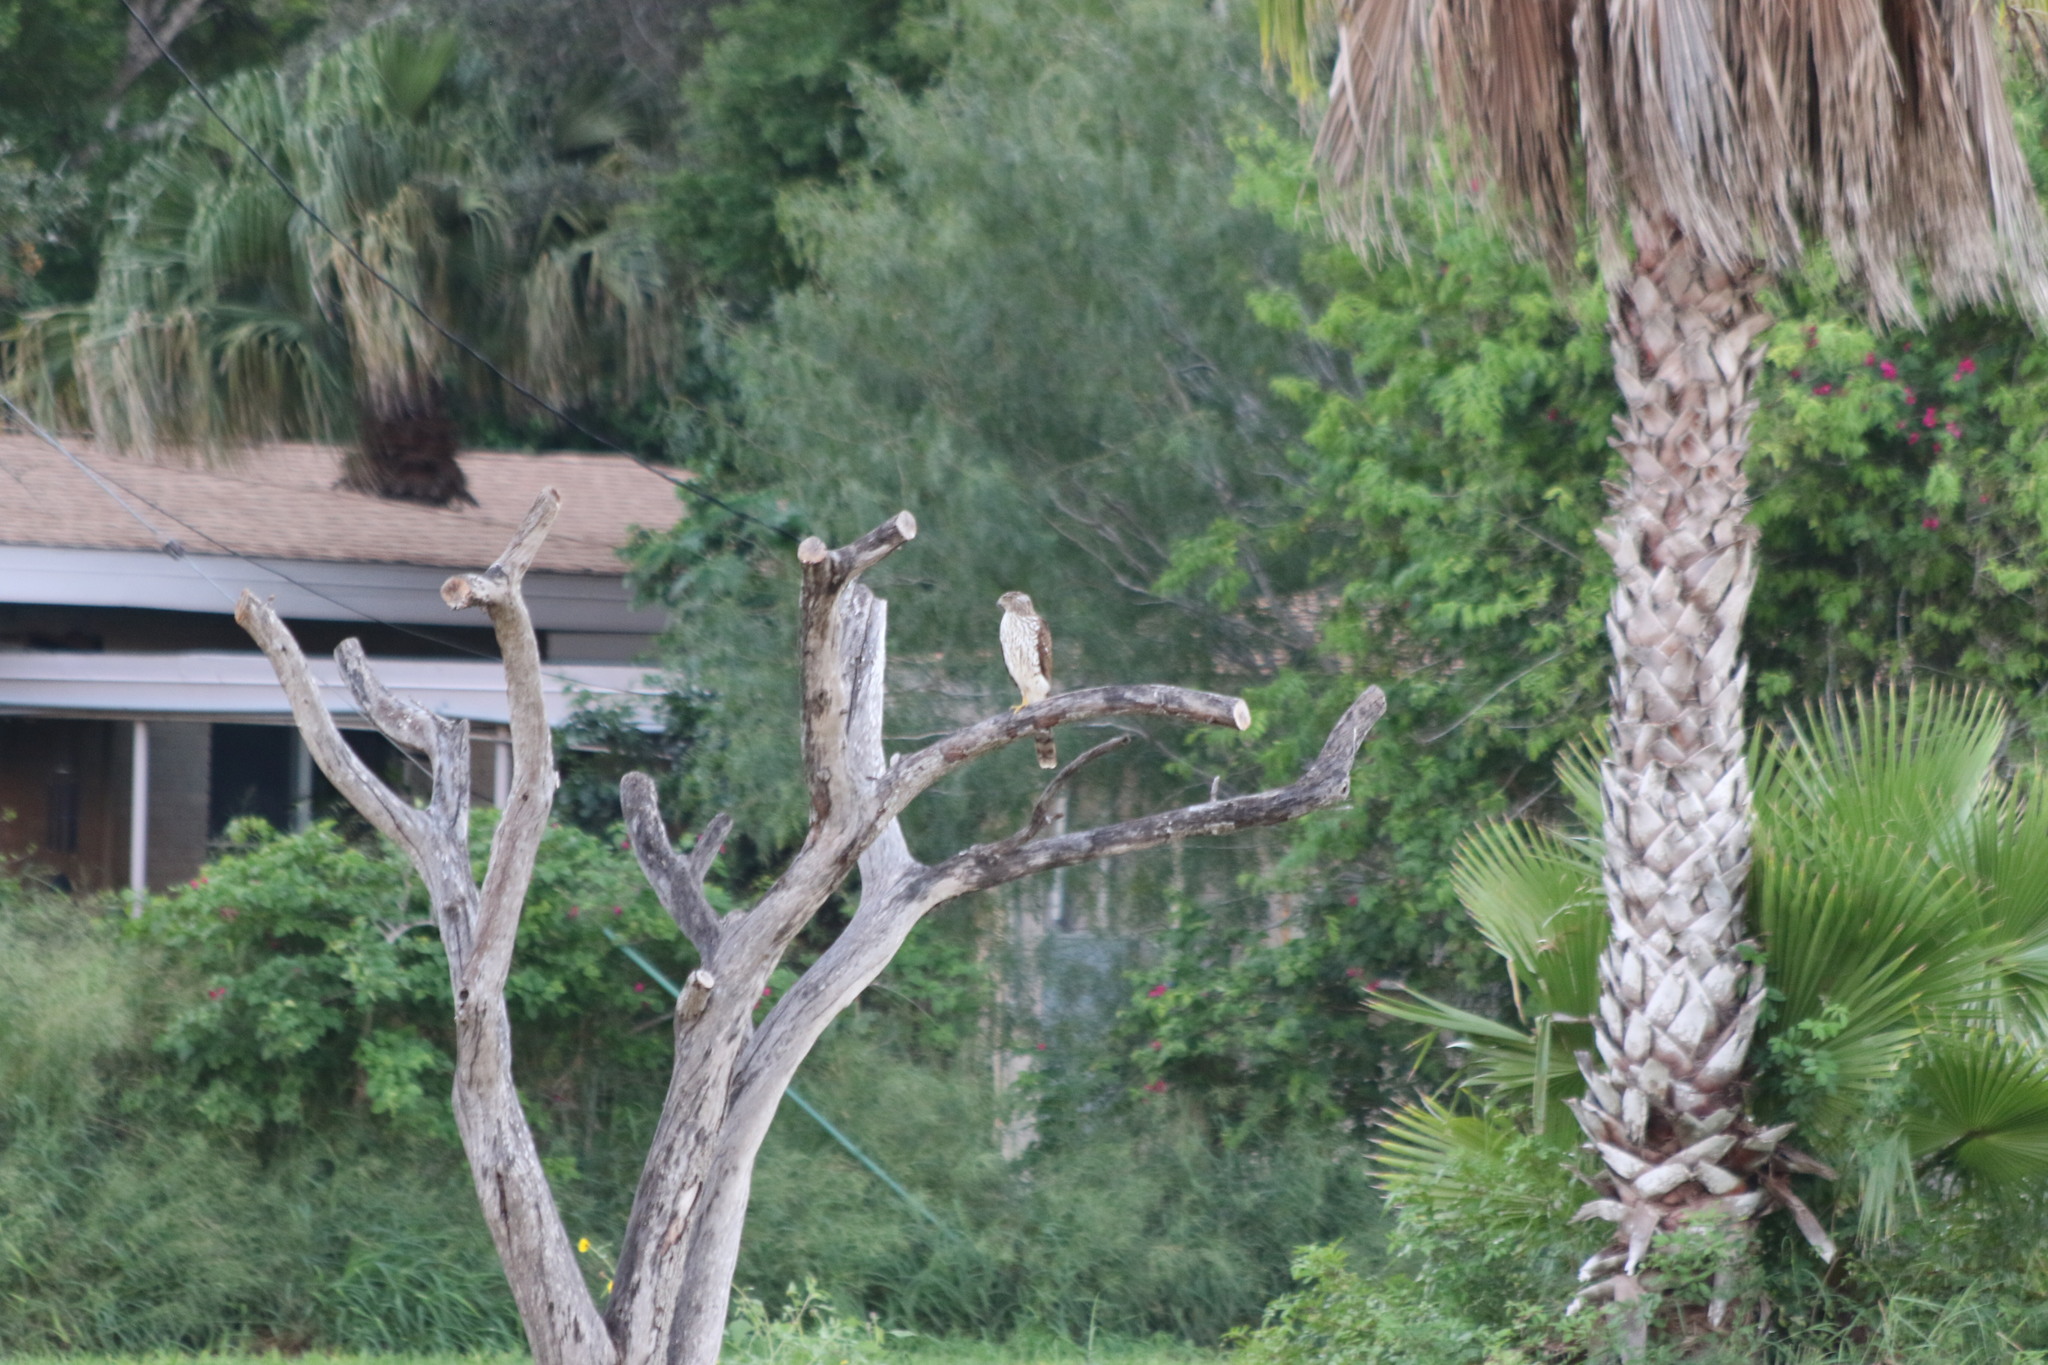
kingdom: Animalia
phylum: Chordata
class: Aves
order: Accipitriformes
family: Accipitridae
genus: Accipiter
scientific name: Accipiter cooperii
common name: Cooper's hawk
